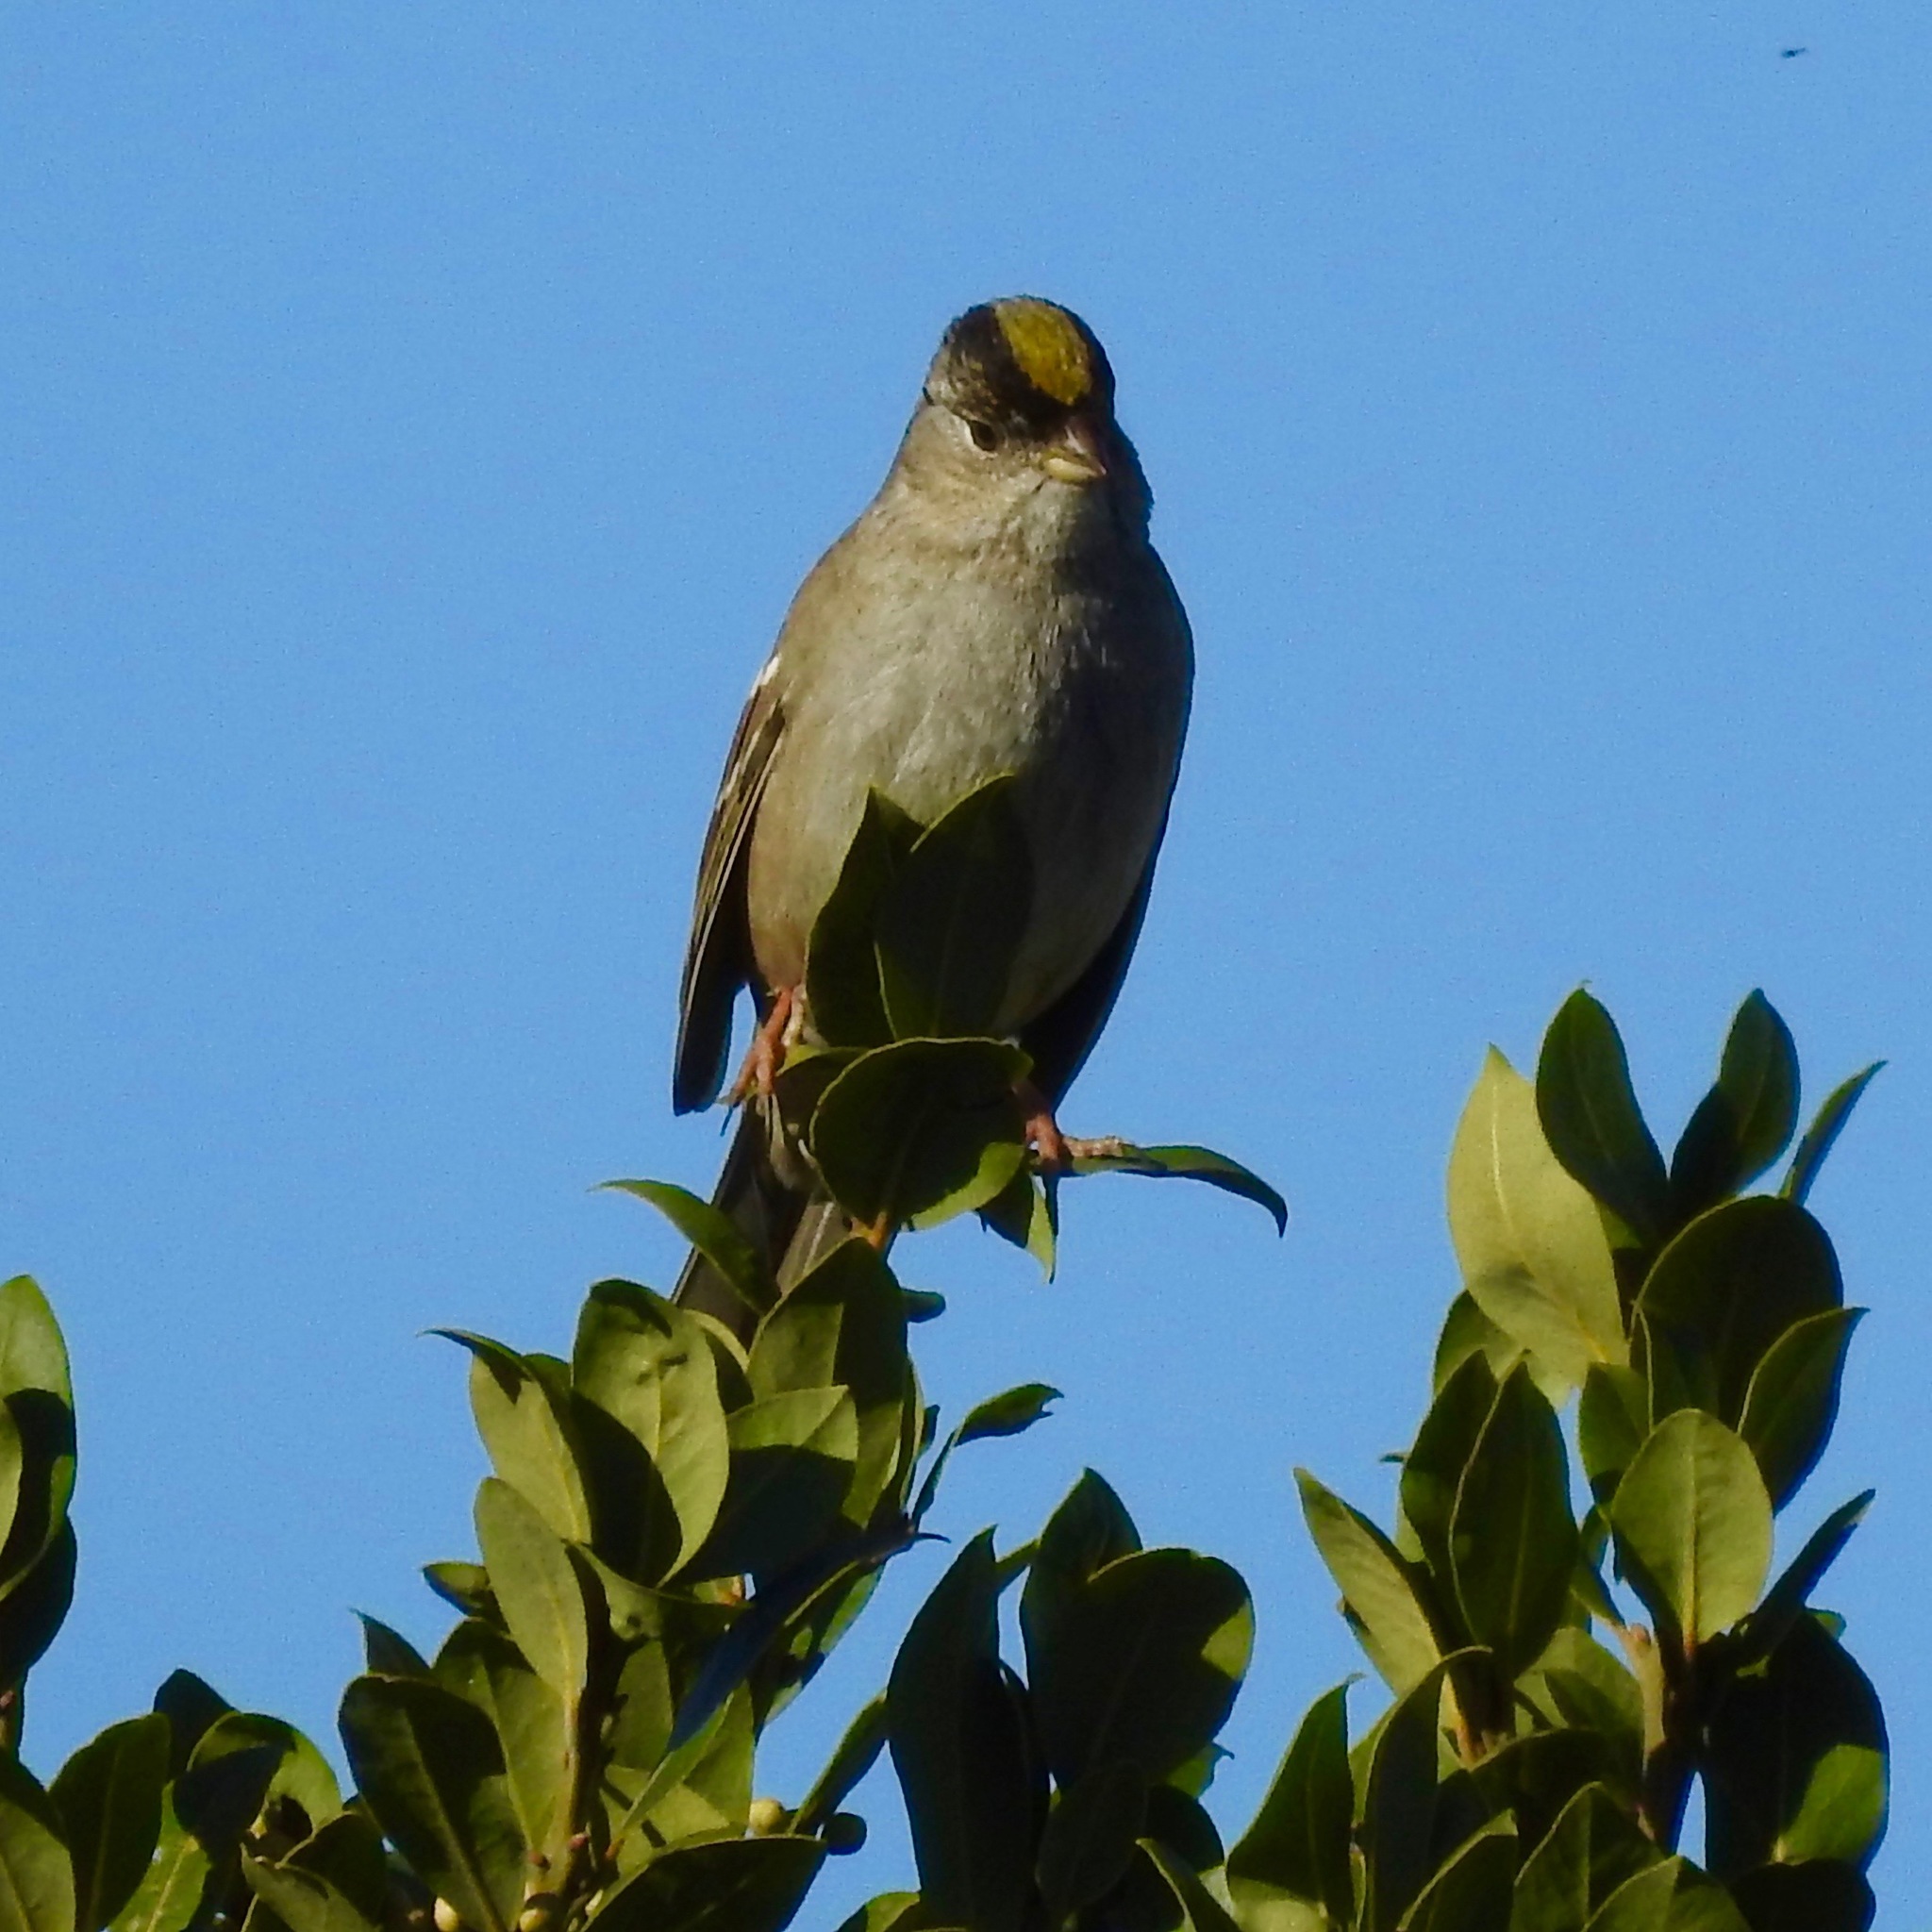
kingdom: Animalia
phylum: Chordata
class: Aves
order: Passeriformes
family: Passerellidae
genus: Zonotrichia
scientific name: Zonotrichia atricapilla
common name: Golden-crowned sparrow
